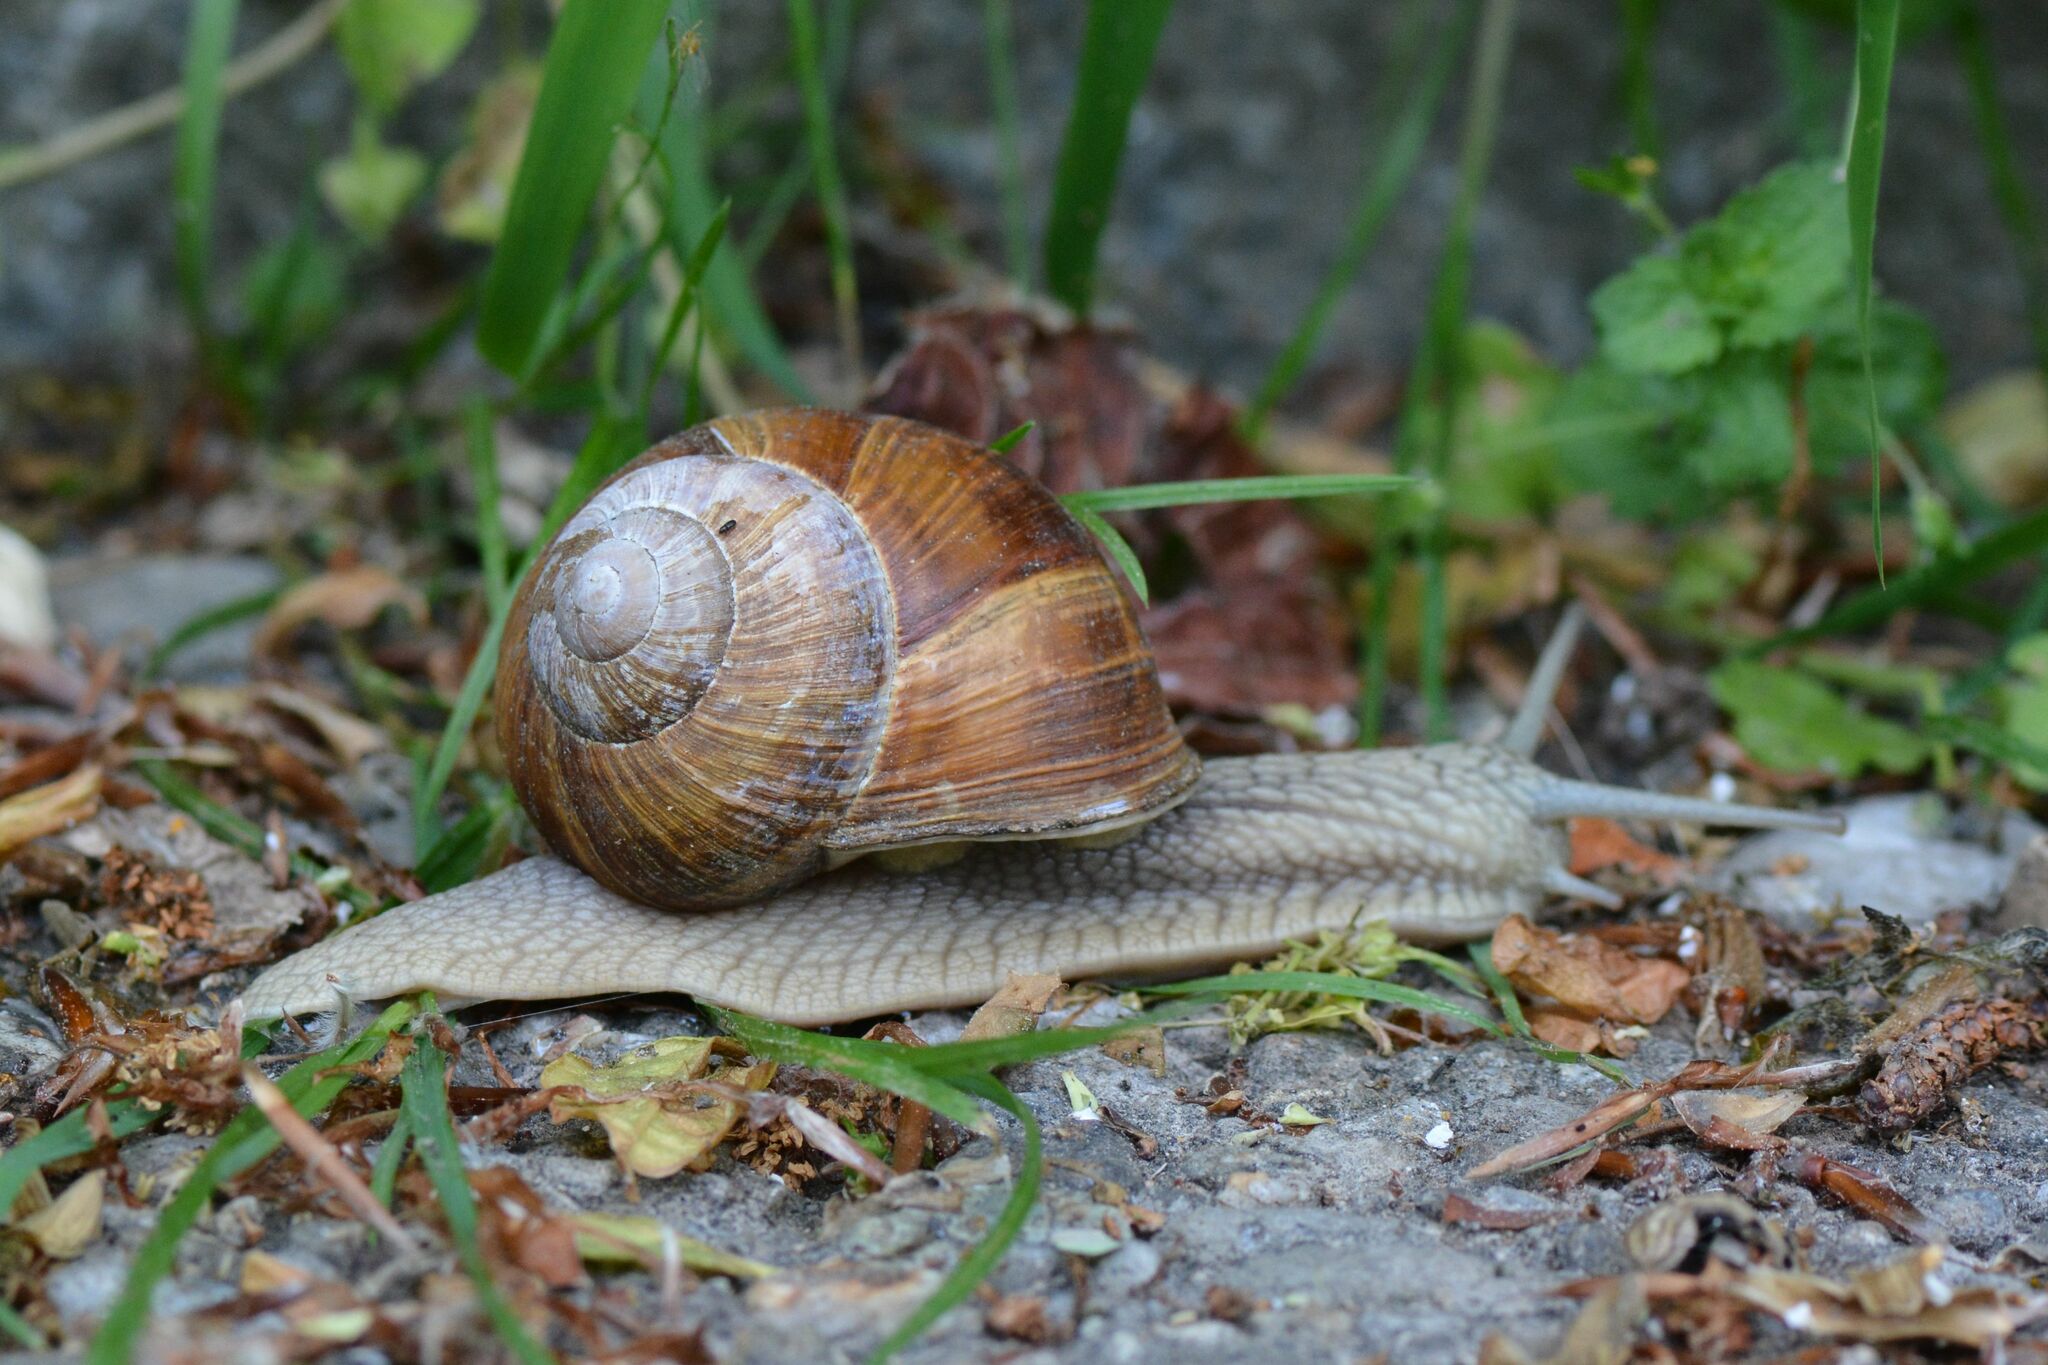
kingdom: Animalia
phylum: Mollusca
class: Gastropoda
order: Stylommatophora
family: Helicidae
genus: Helix
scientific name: Helix pomatia
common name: Roman snail
